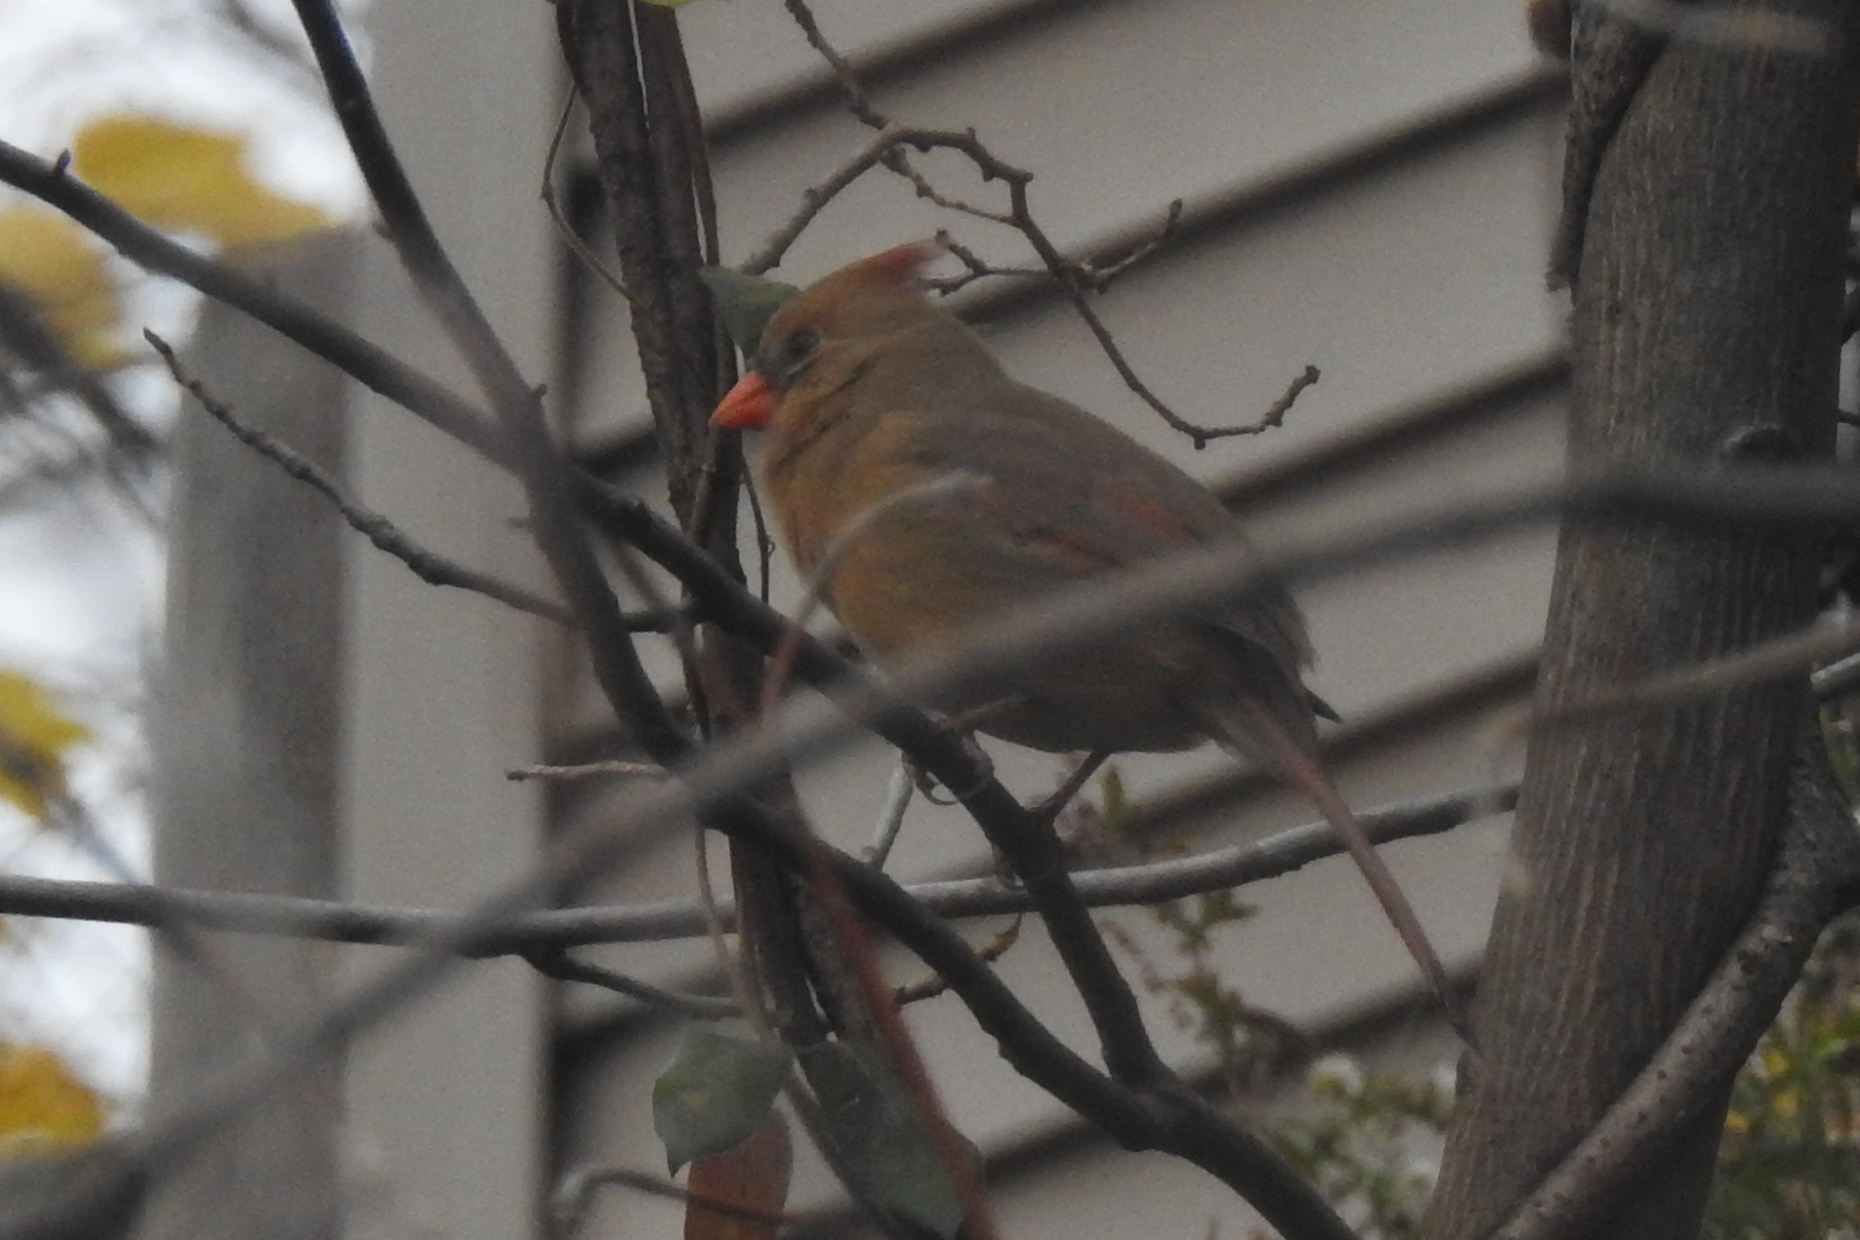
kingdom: Animalia
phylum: Chordata
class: Aves
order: Passeriformes
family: Cardinalidae
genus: Cardinalis
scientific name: Cardinalis cardinalis
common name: Northern cardinal
